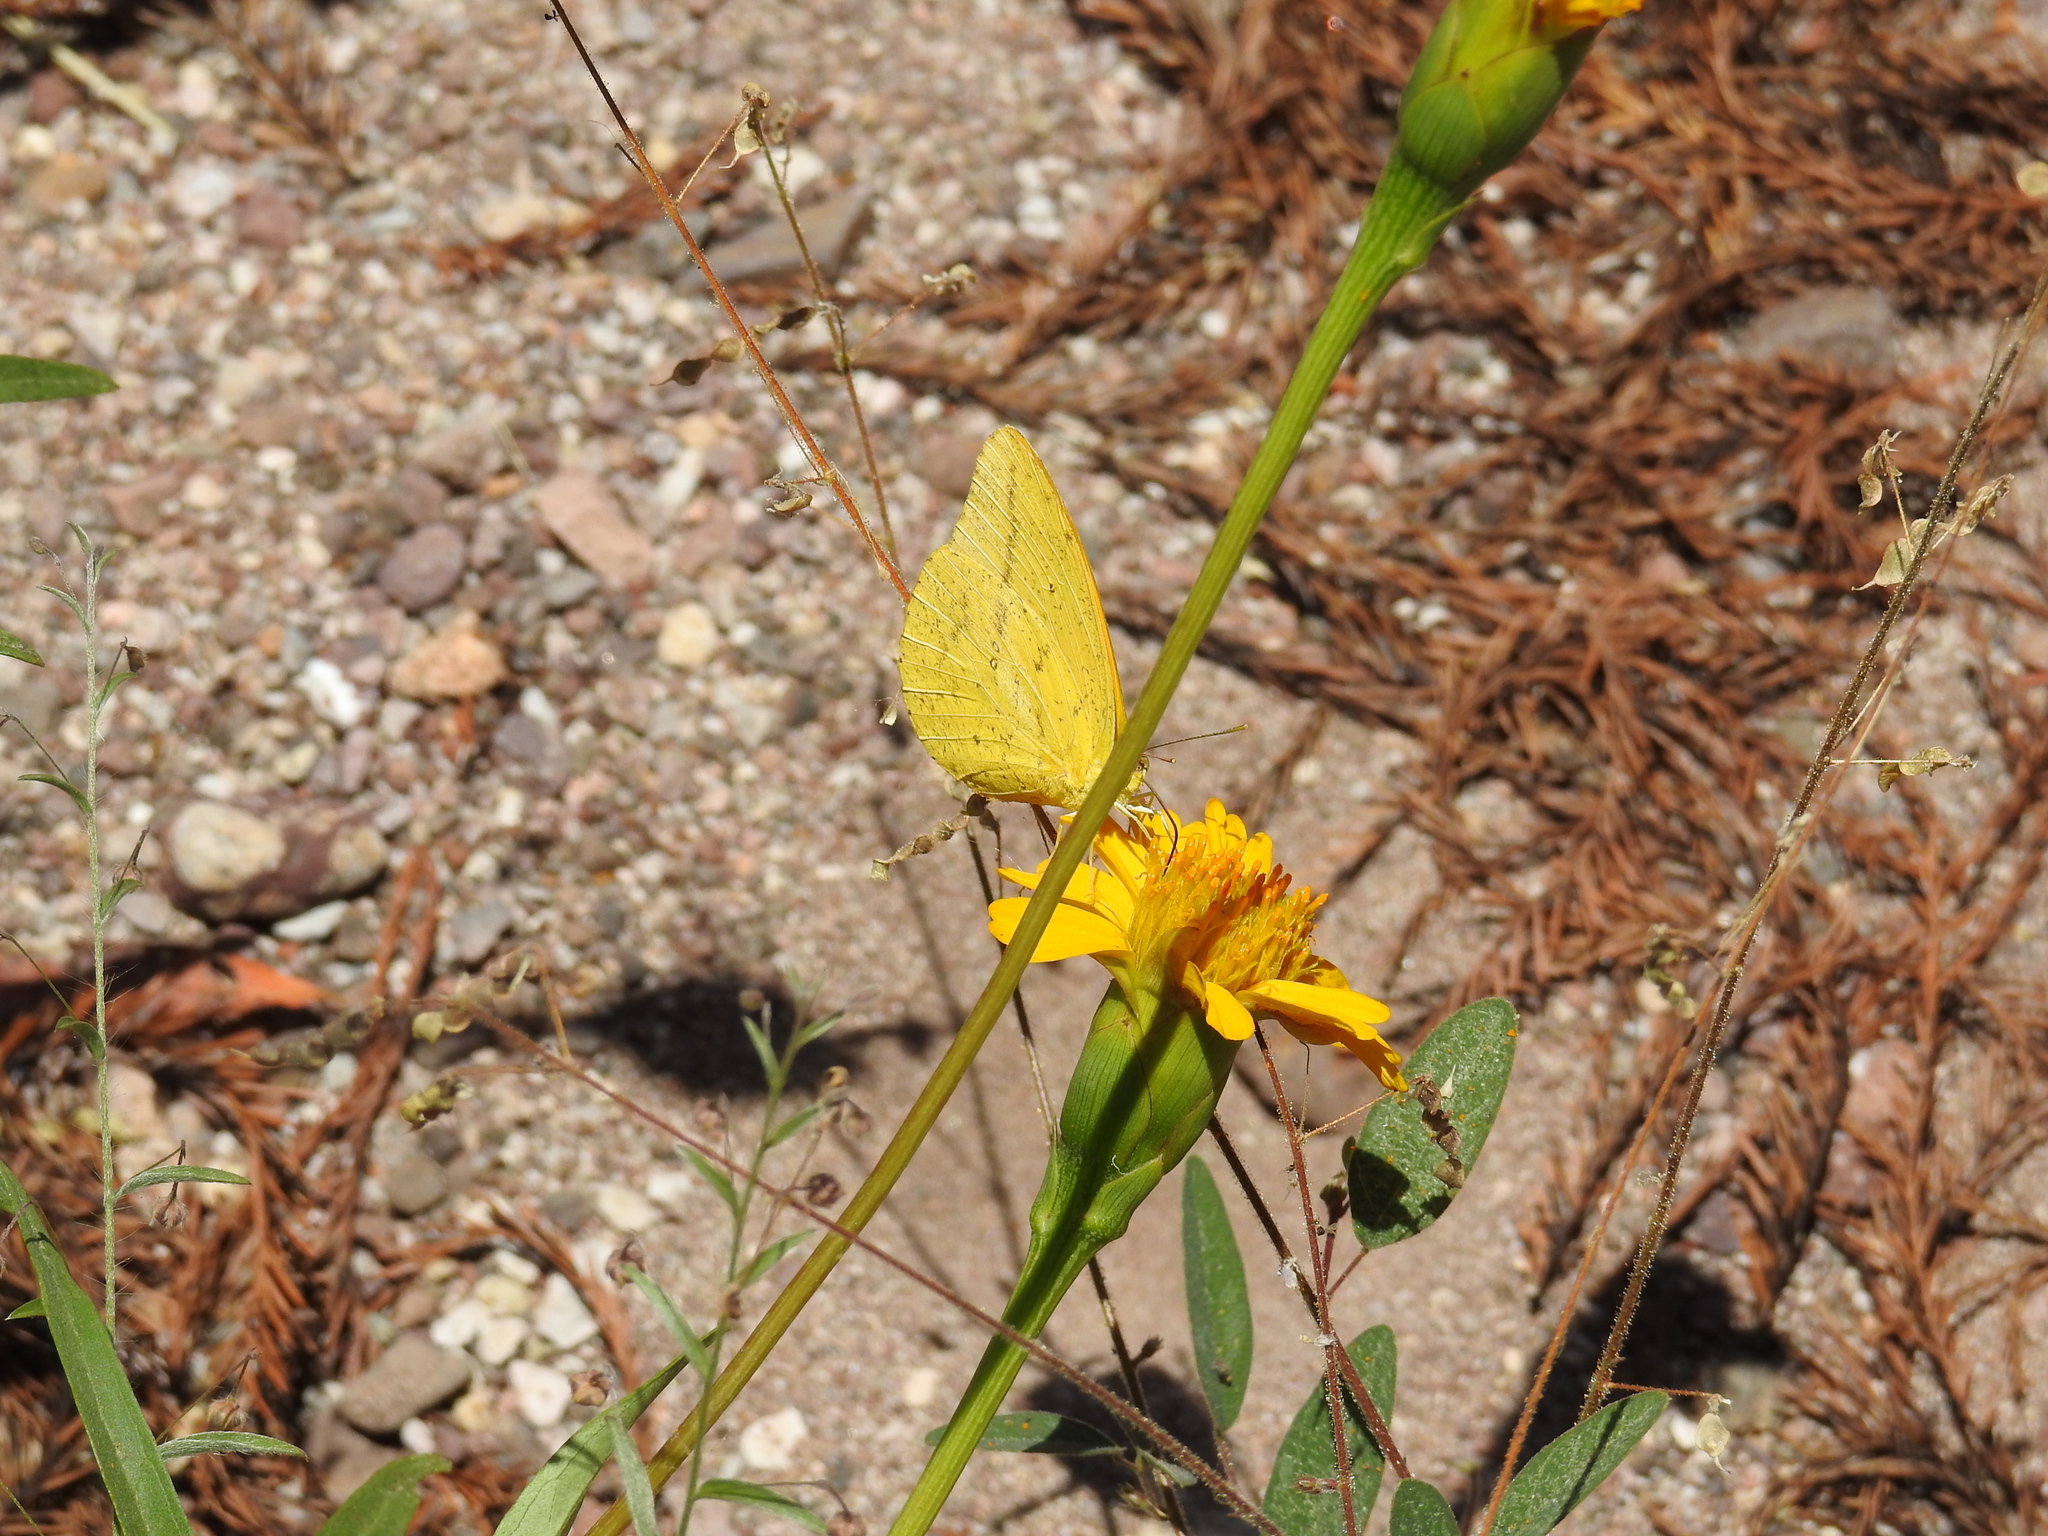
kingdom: Animalia
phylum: Arthropoda
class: Insecta
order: Lepidoptera
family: Pieridae
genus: Phoebis
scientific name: Phoebis agarithe
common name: Large orange sulphur
